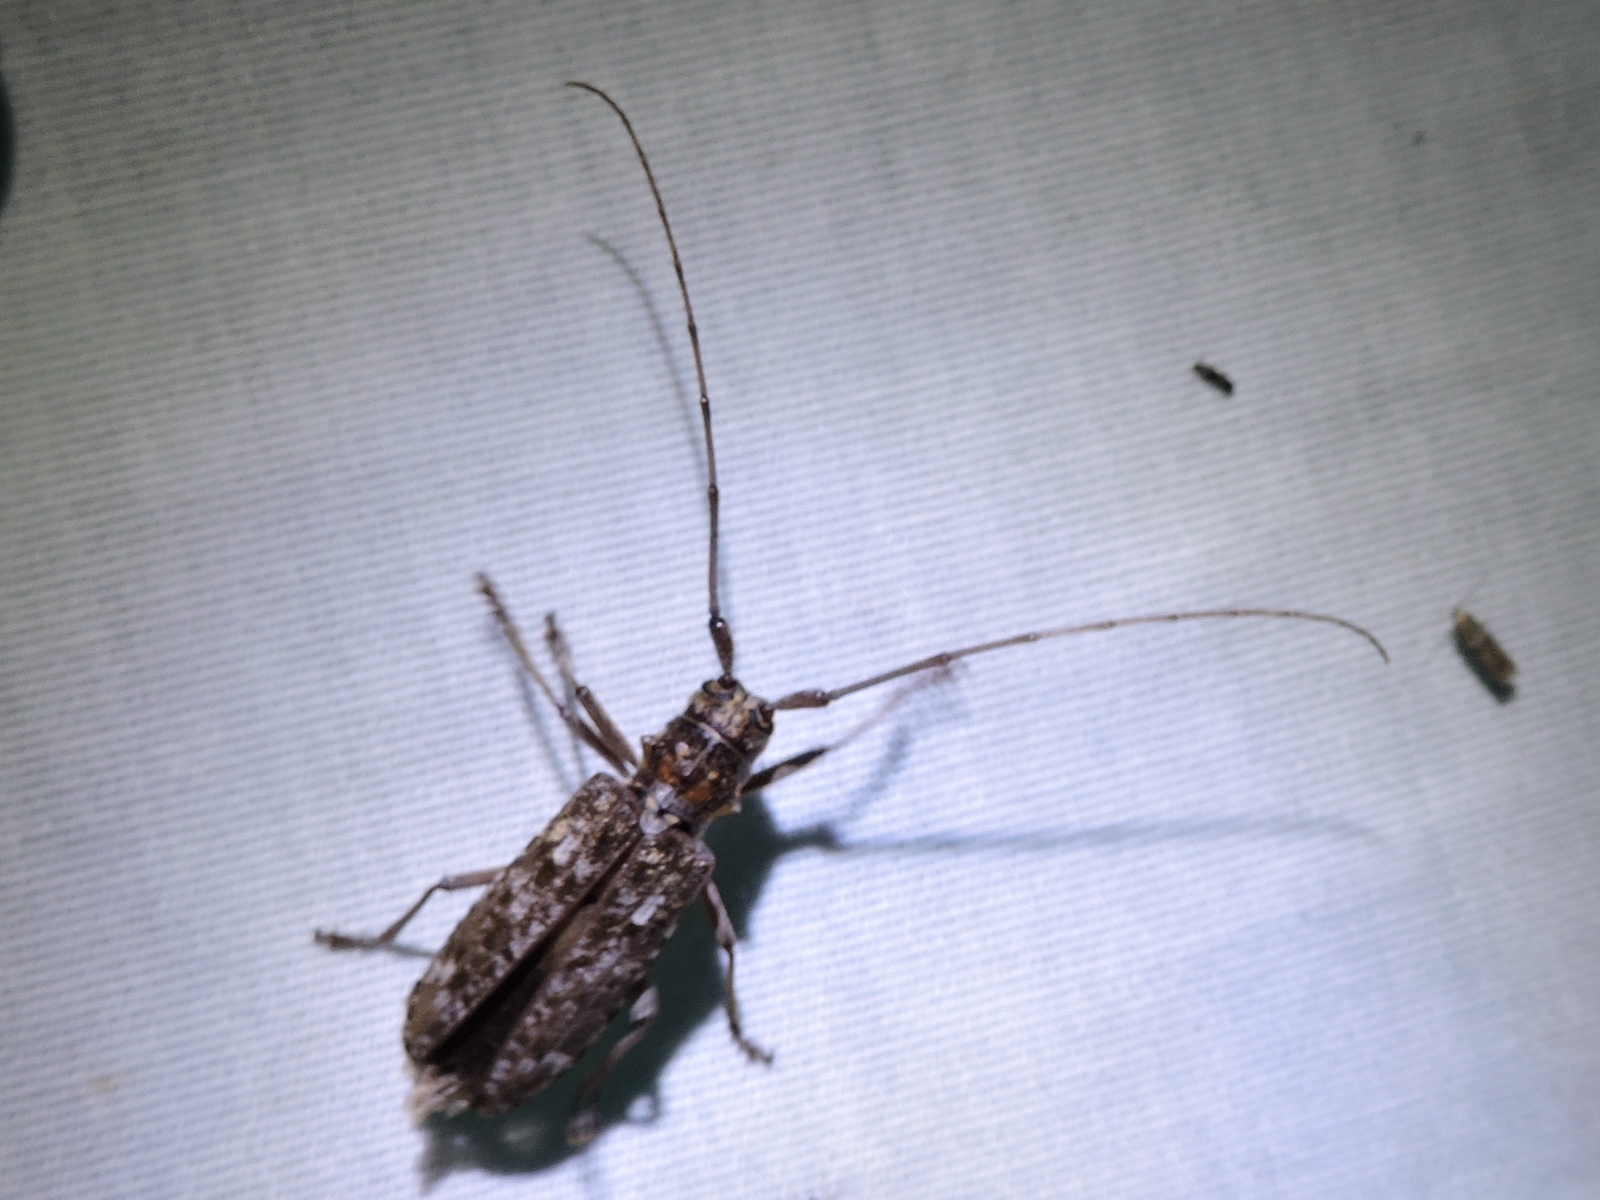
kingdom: Animalia
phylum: Arthropoda
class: Insecta
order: Coleoptera
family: Cerambycidae
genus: Monochamus
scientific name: Monochamus carolinensis
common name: Carolina pine sawyer
